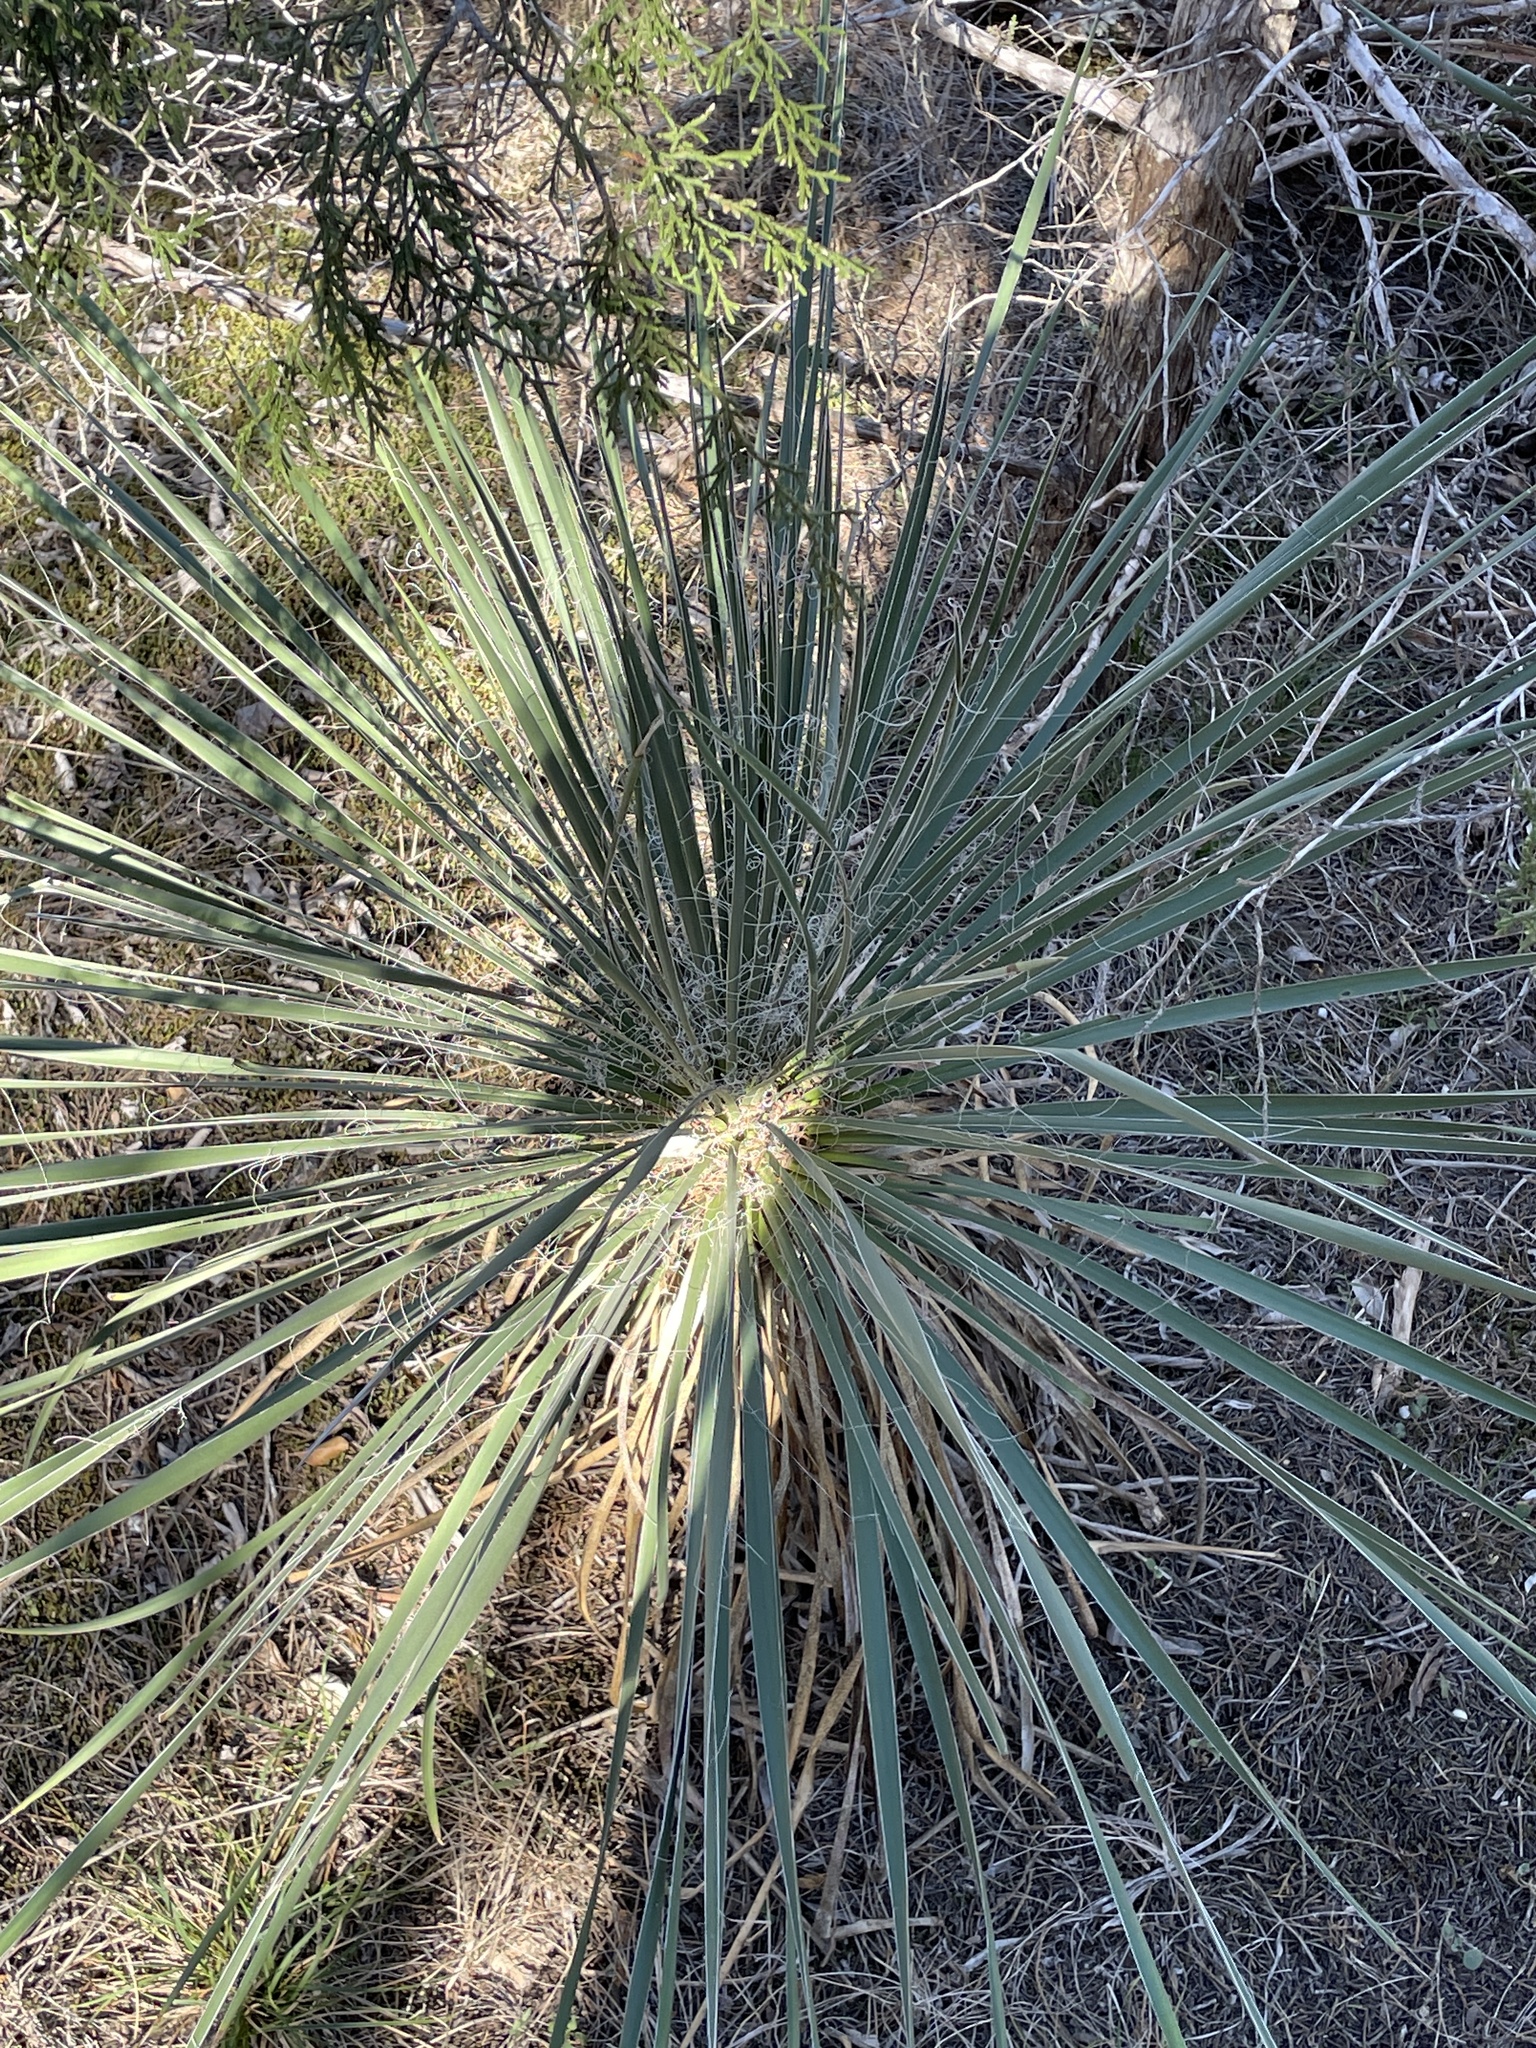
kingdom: Plantae
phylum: Tracheophyta
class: Liliopsida
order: Asparagales
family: Asparagaceae
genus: Yucca
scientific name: Yucca constricta
